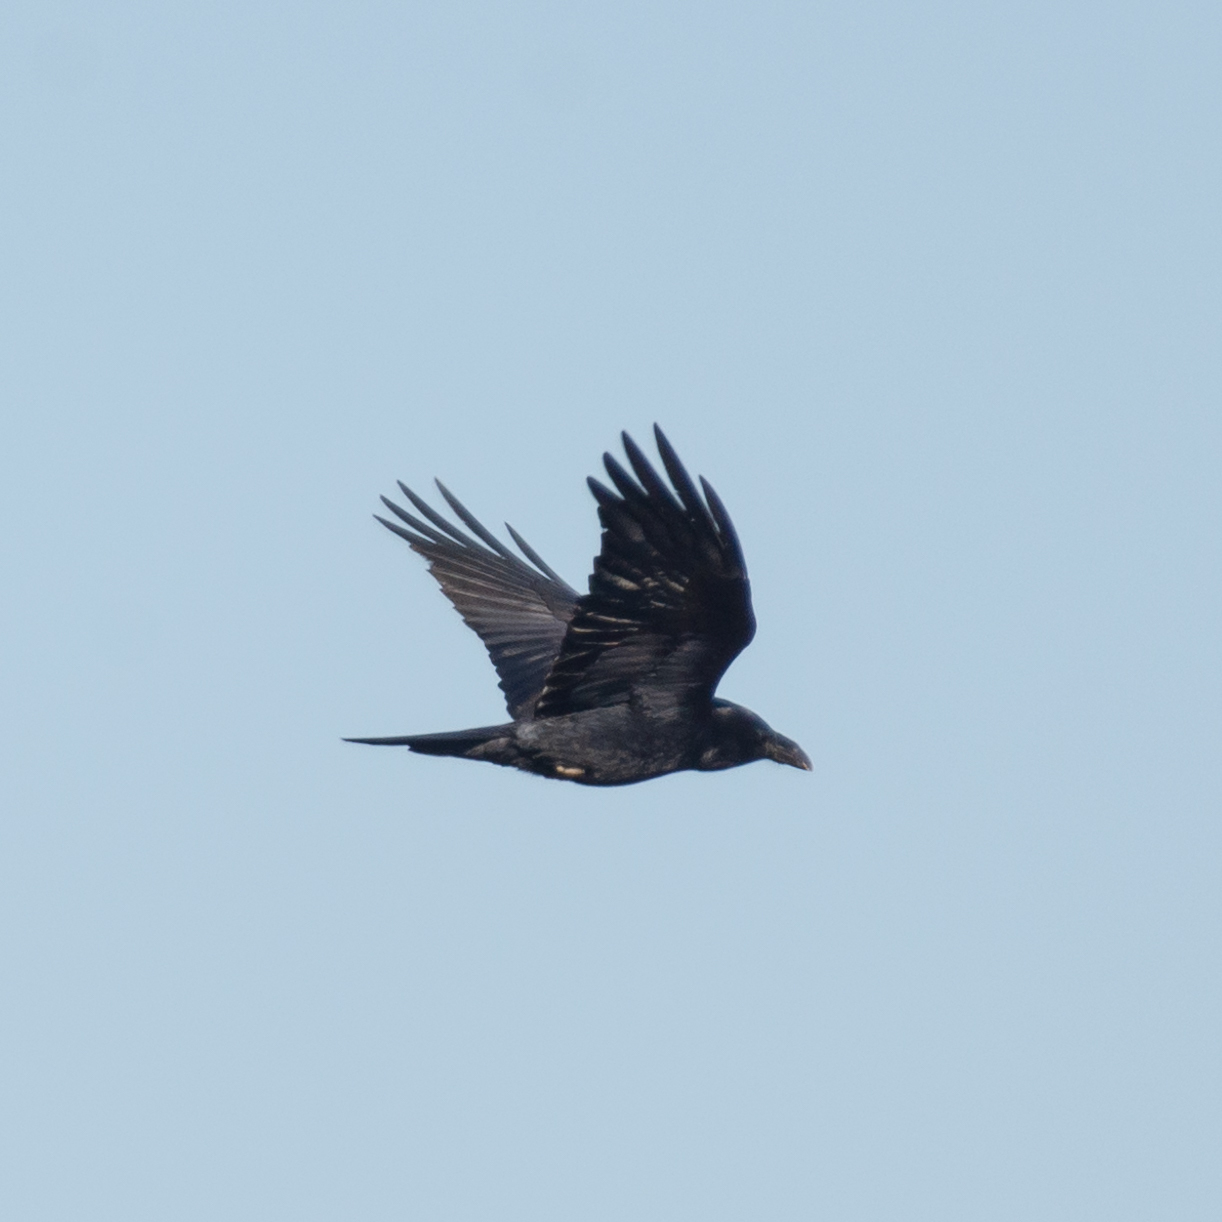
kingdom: Animalia
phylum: Chordata
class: Aves
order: Passeriformes
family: Corvidae
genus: Corvus
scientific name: Corvus corax
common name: Common raven
